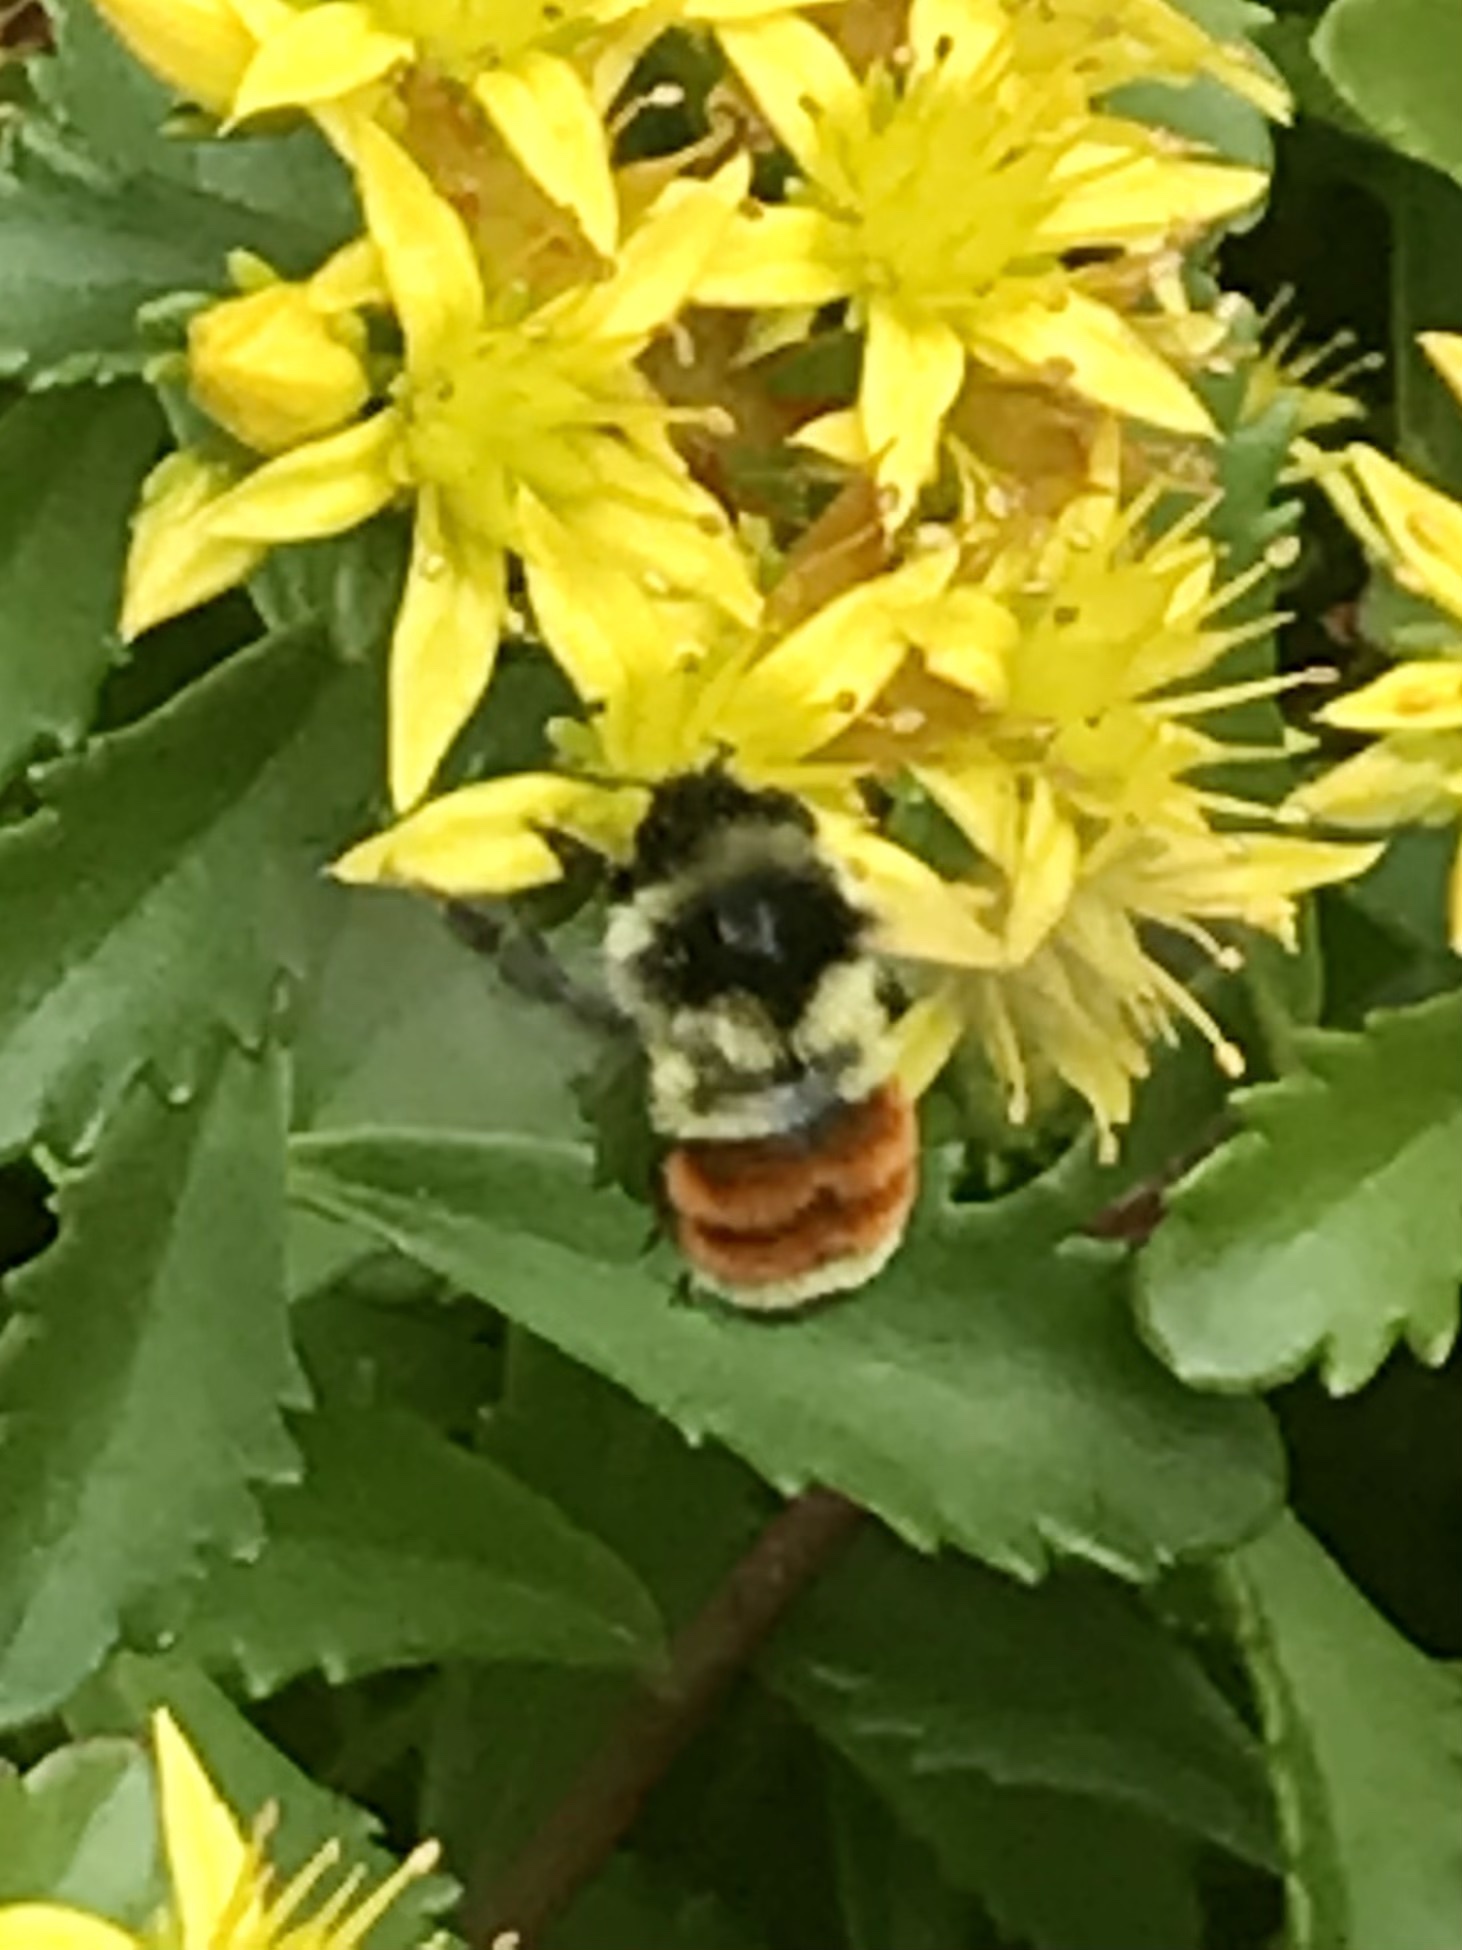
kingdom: Animalia
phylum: Arthropoda
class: Insecta
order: Hymenoptera
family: Apidae
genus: Bombus
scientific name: Bombus ternarius
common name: Tri-colored bumble bee
